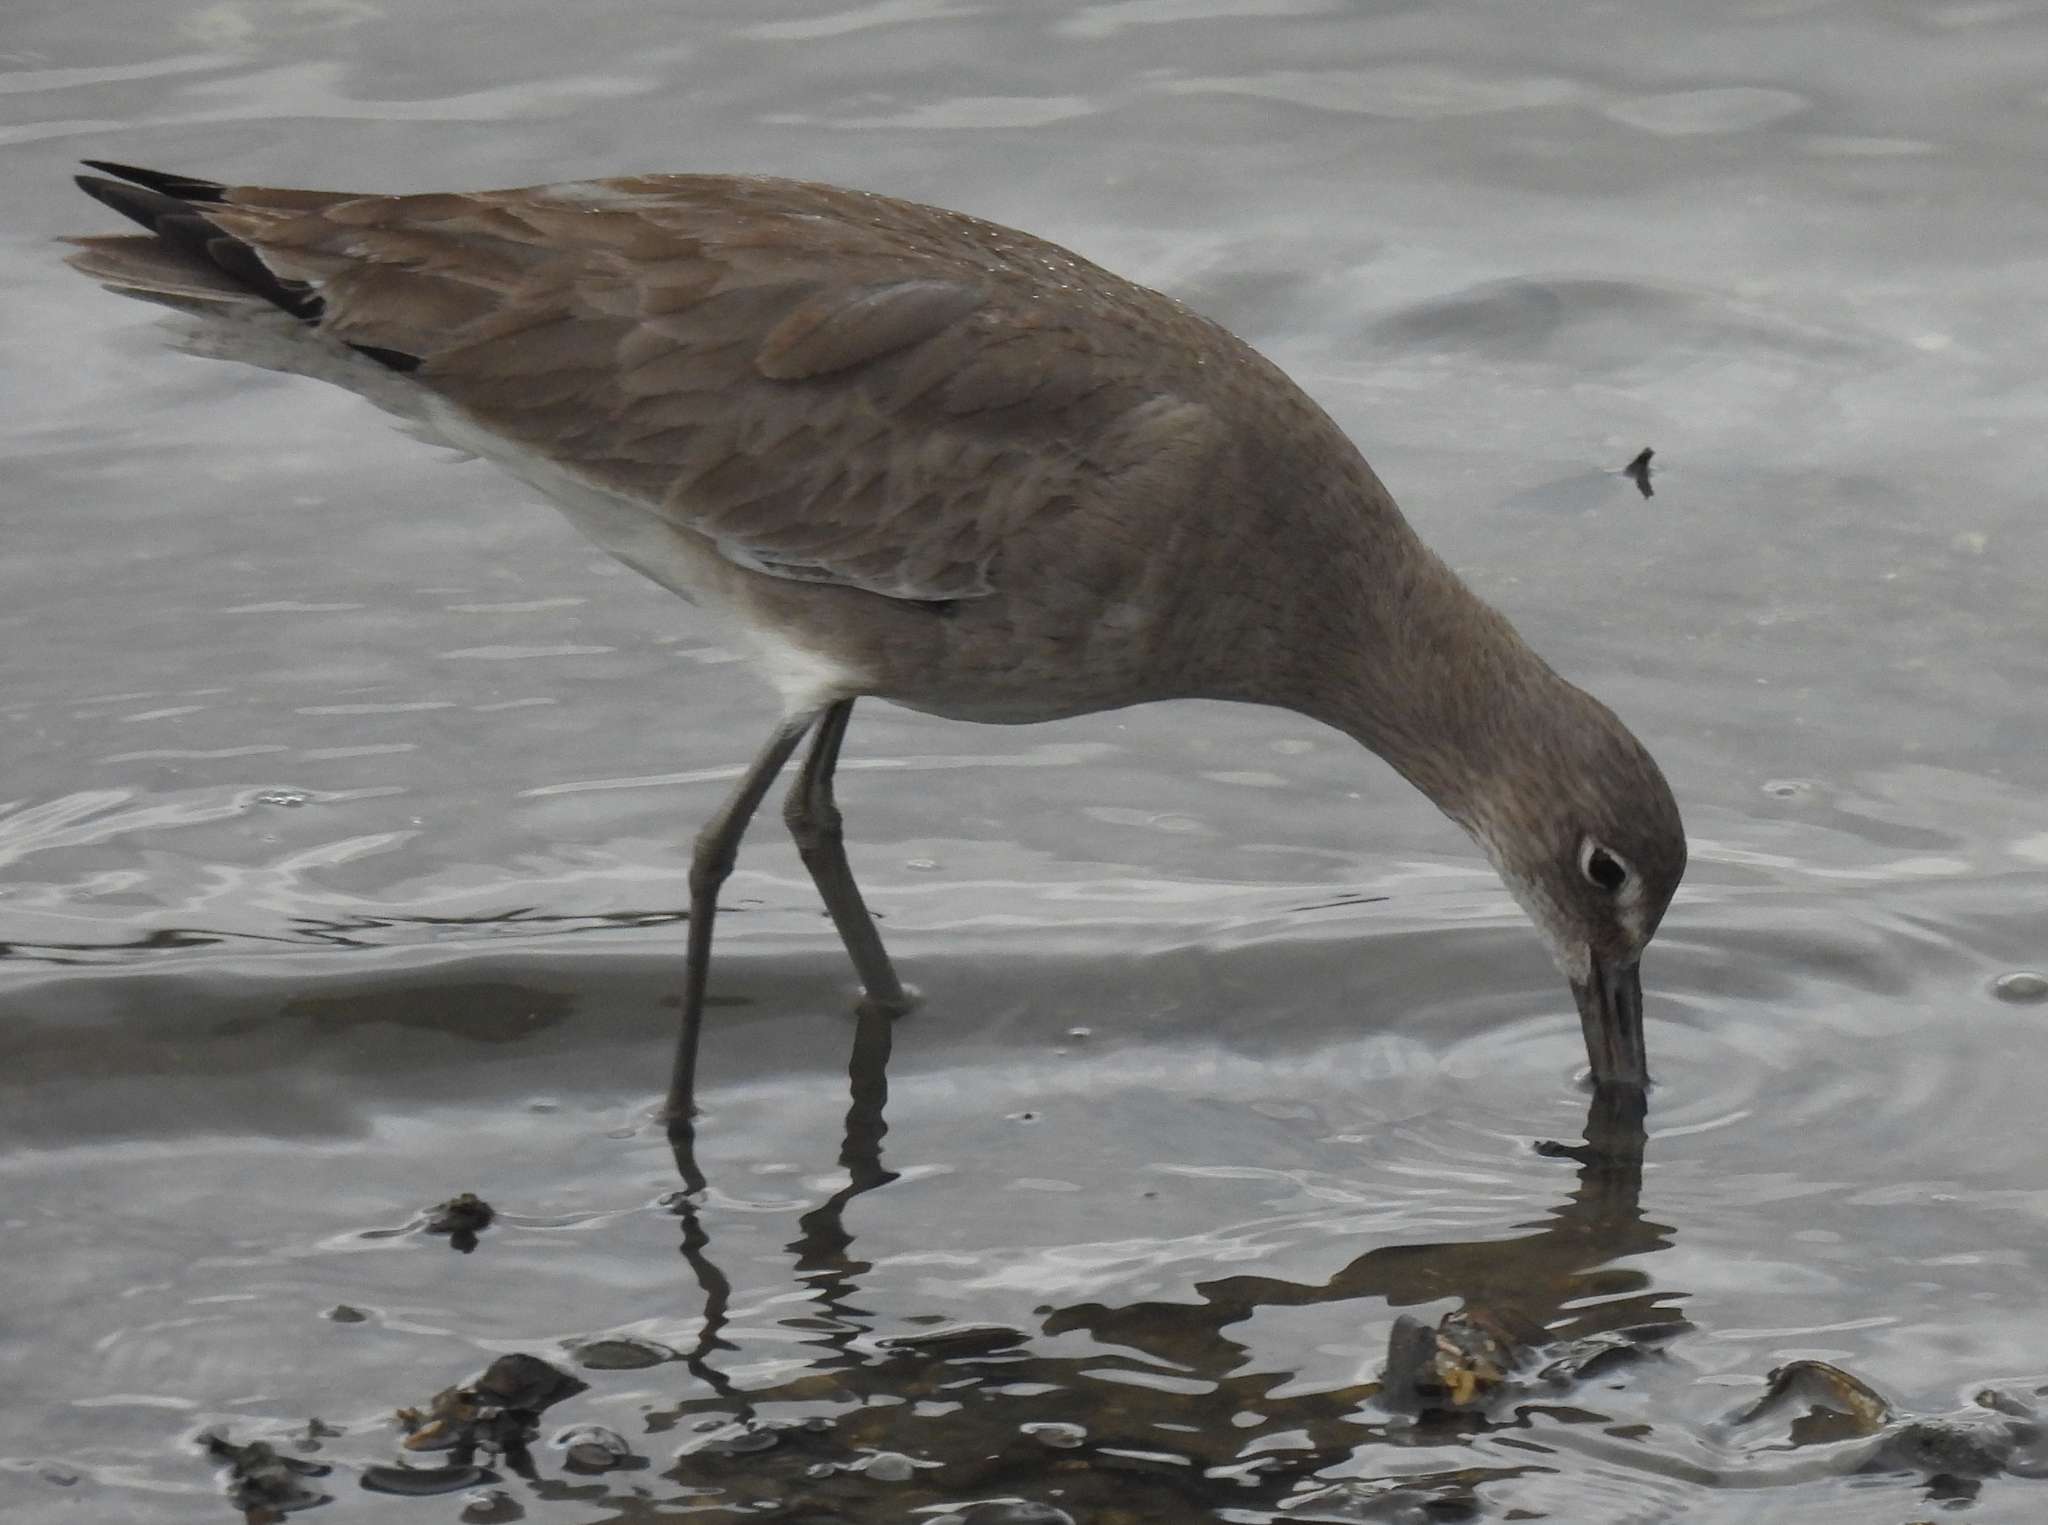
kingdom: Animalia
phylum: Chordata
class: Aves
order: Charadriiformes
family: Scolopacidae
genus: Tringa
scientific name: Tringa semipalmata
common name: Willet
